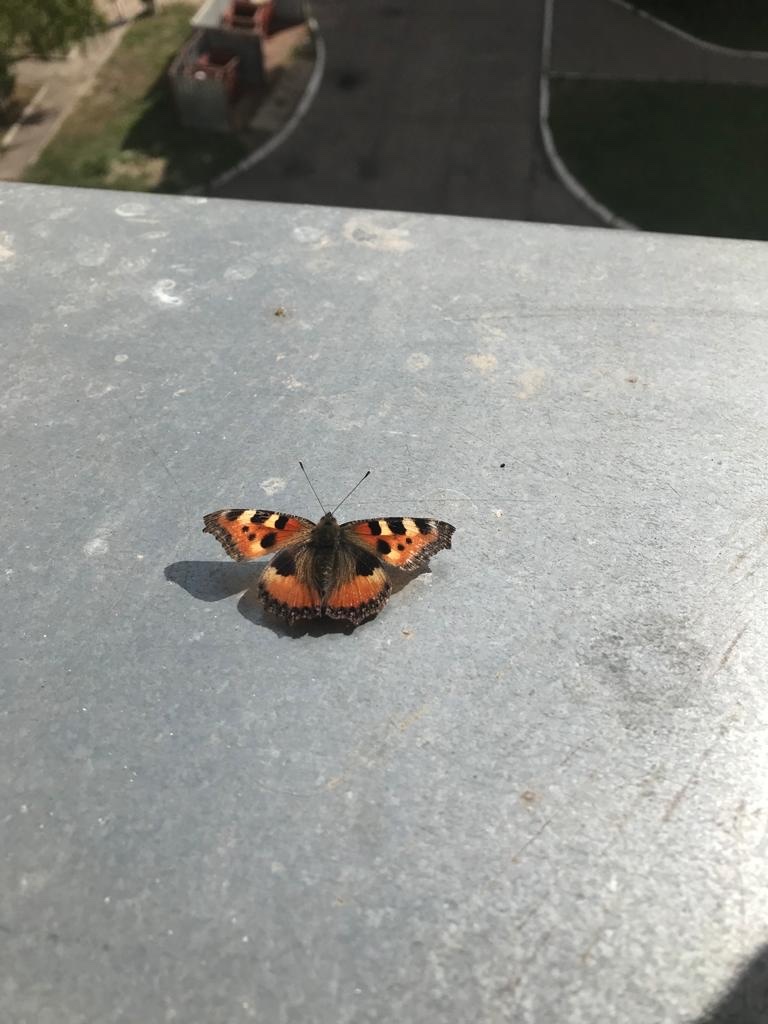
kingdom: Animalia
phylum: Arthropoda
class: Insecta
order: Lepidoptera
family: Nymphalidae
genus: Aglais
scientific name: Aglais urticae
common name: Small tortoiseshell
